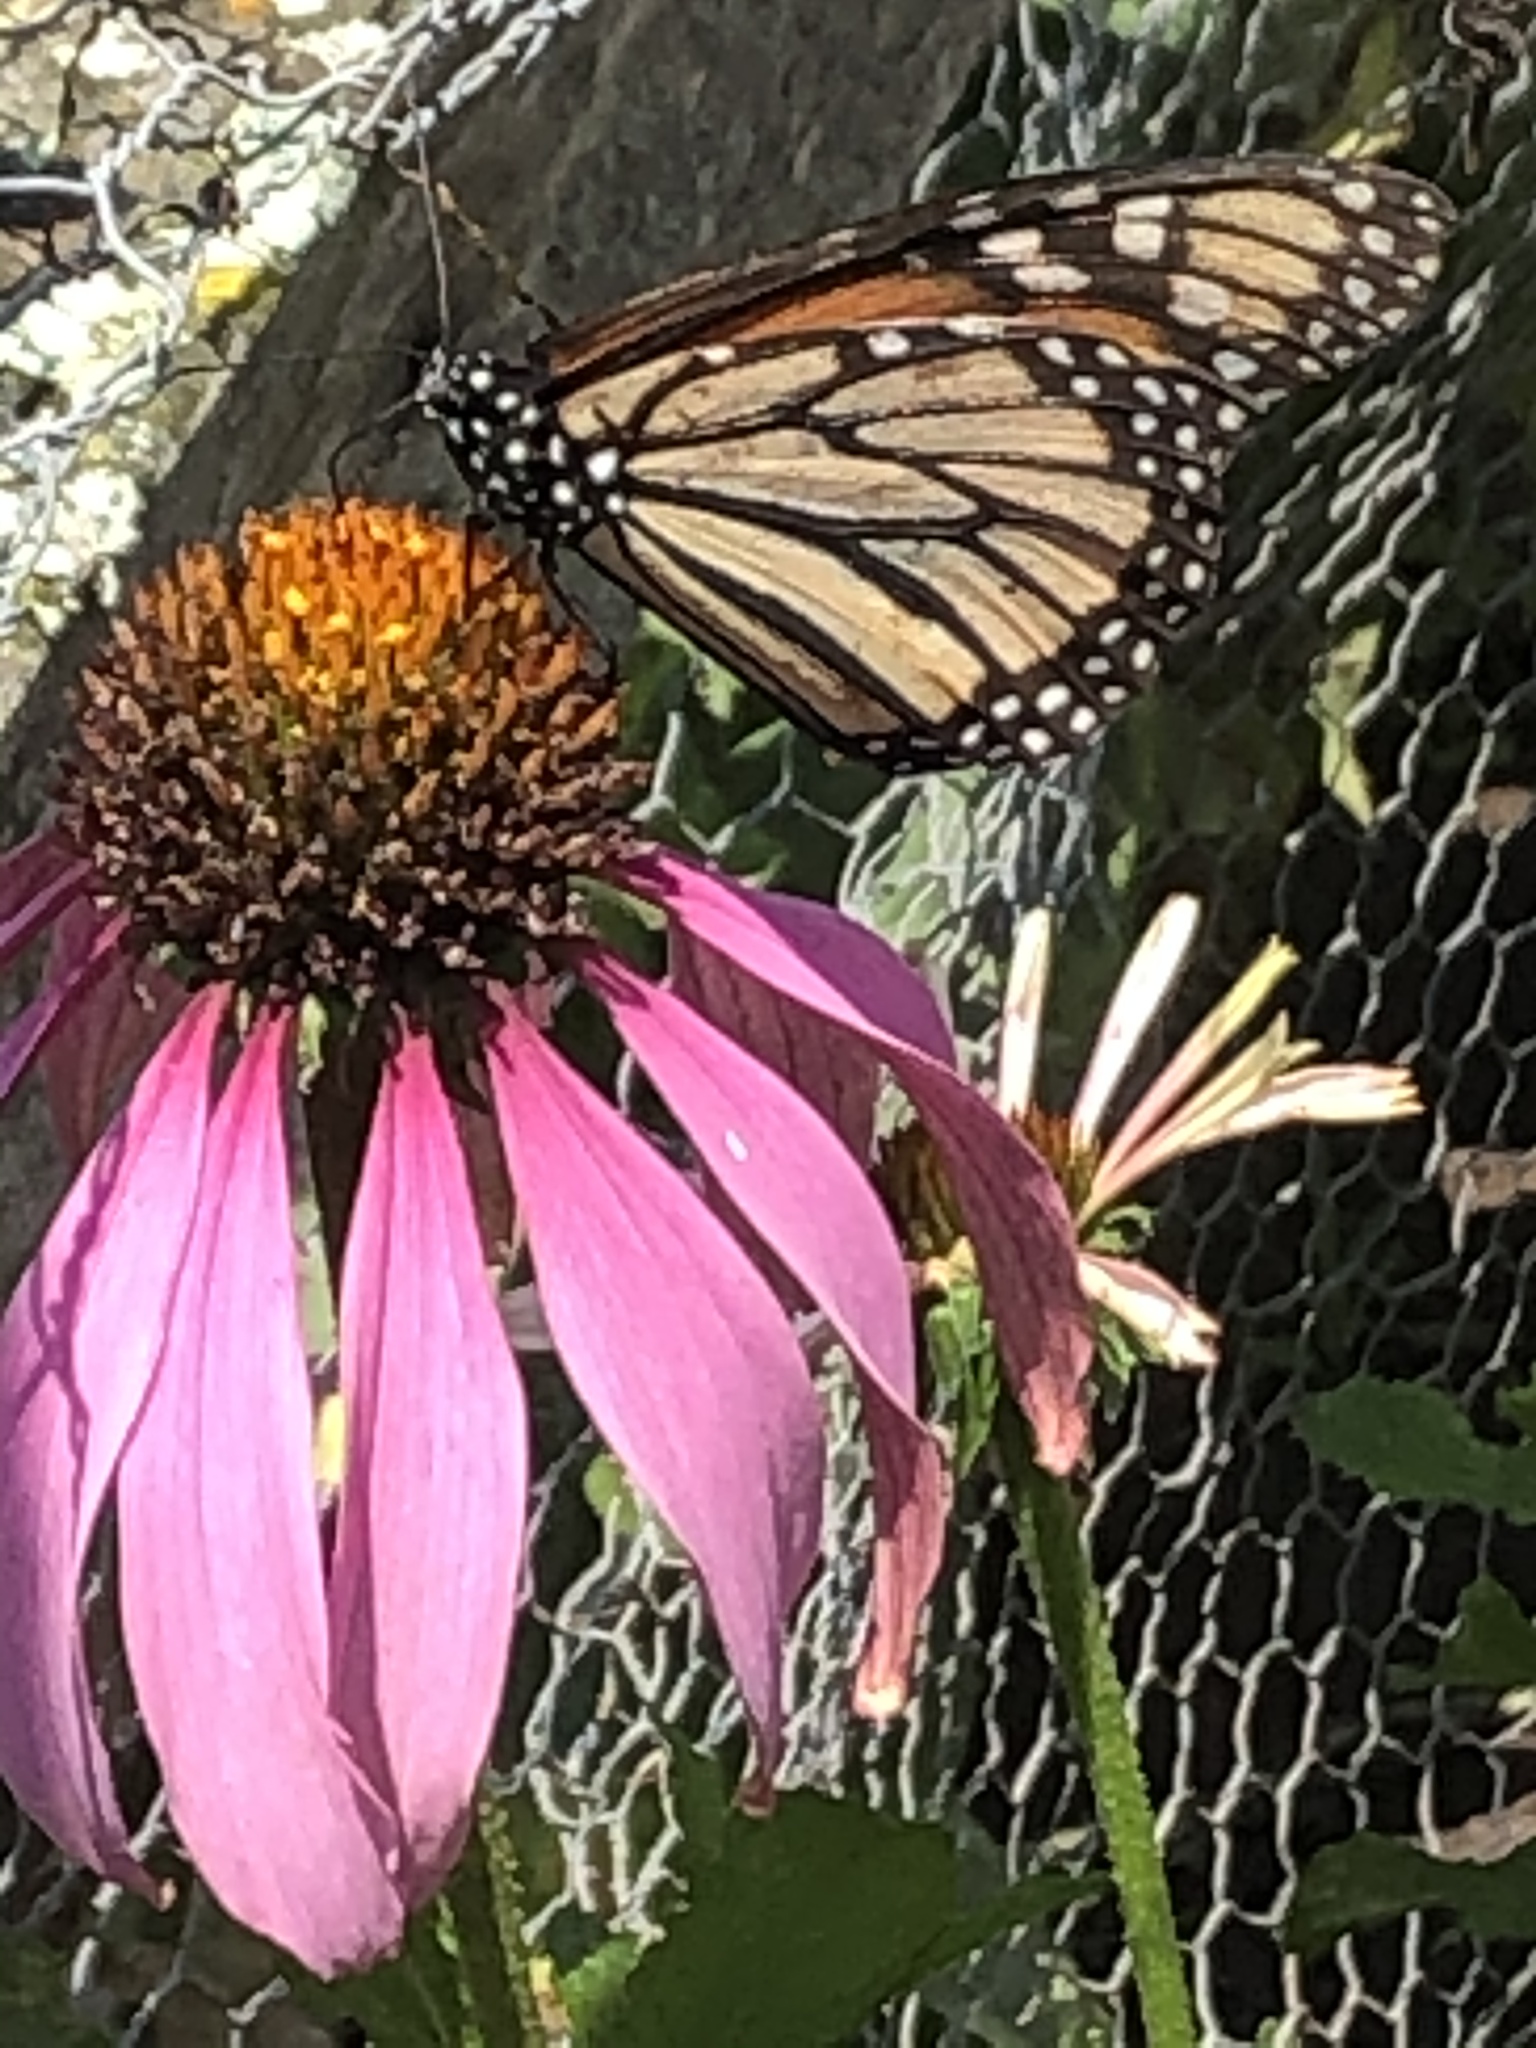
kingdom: Animalia
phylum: Arthropoda
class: Insecta
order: Lepidoptera
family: Nymphalidae
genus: Danaus
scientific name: Danaus plexippus
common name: Monarch
